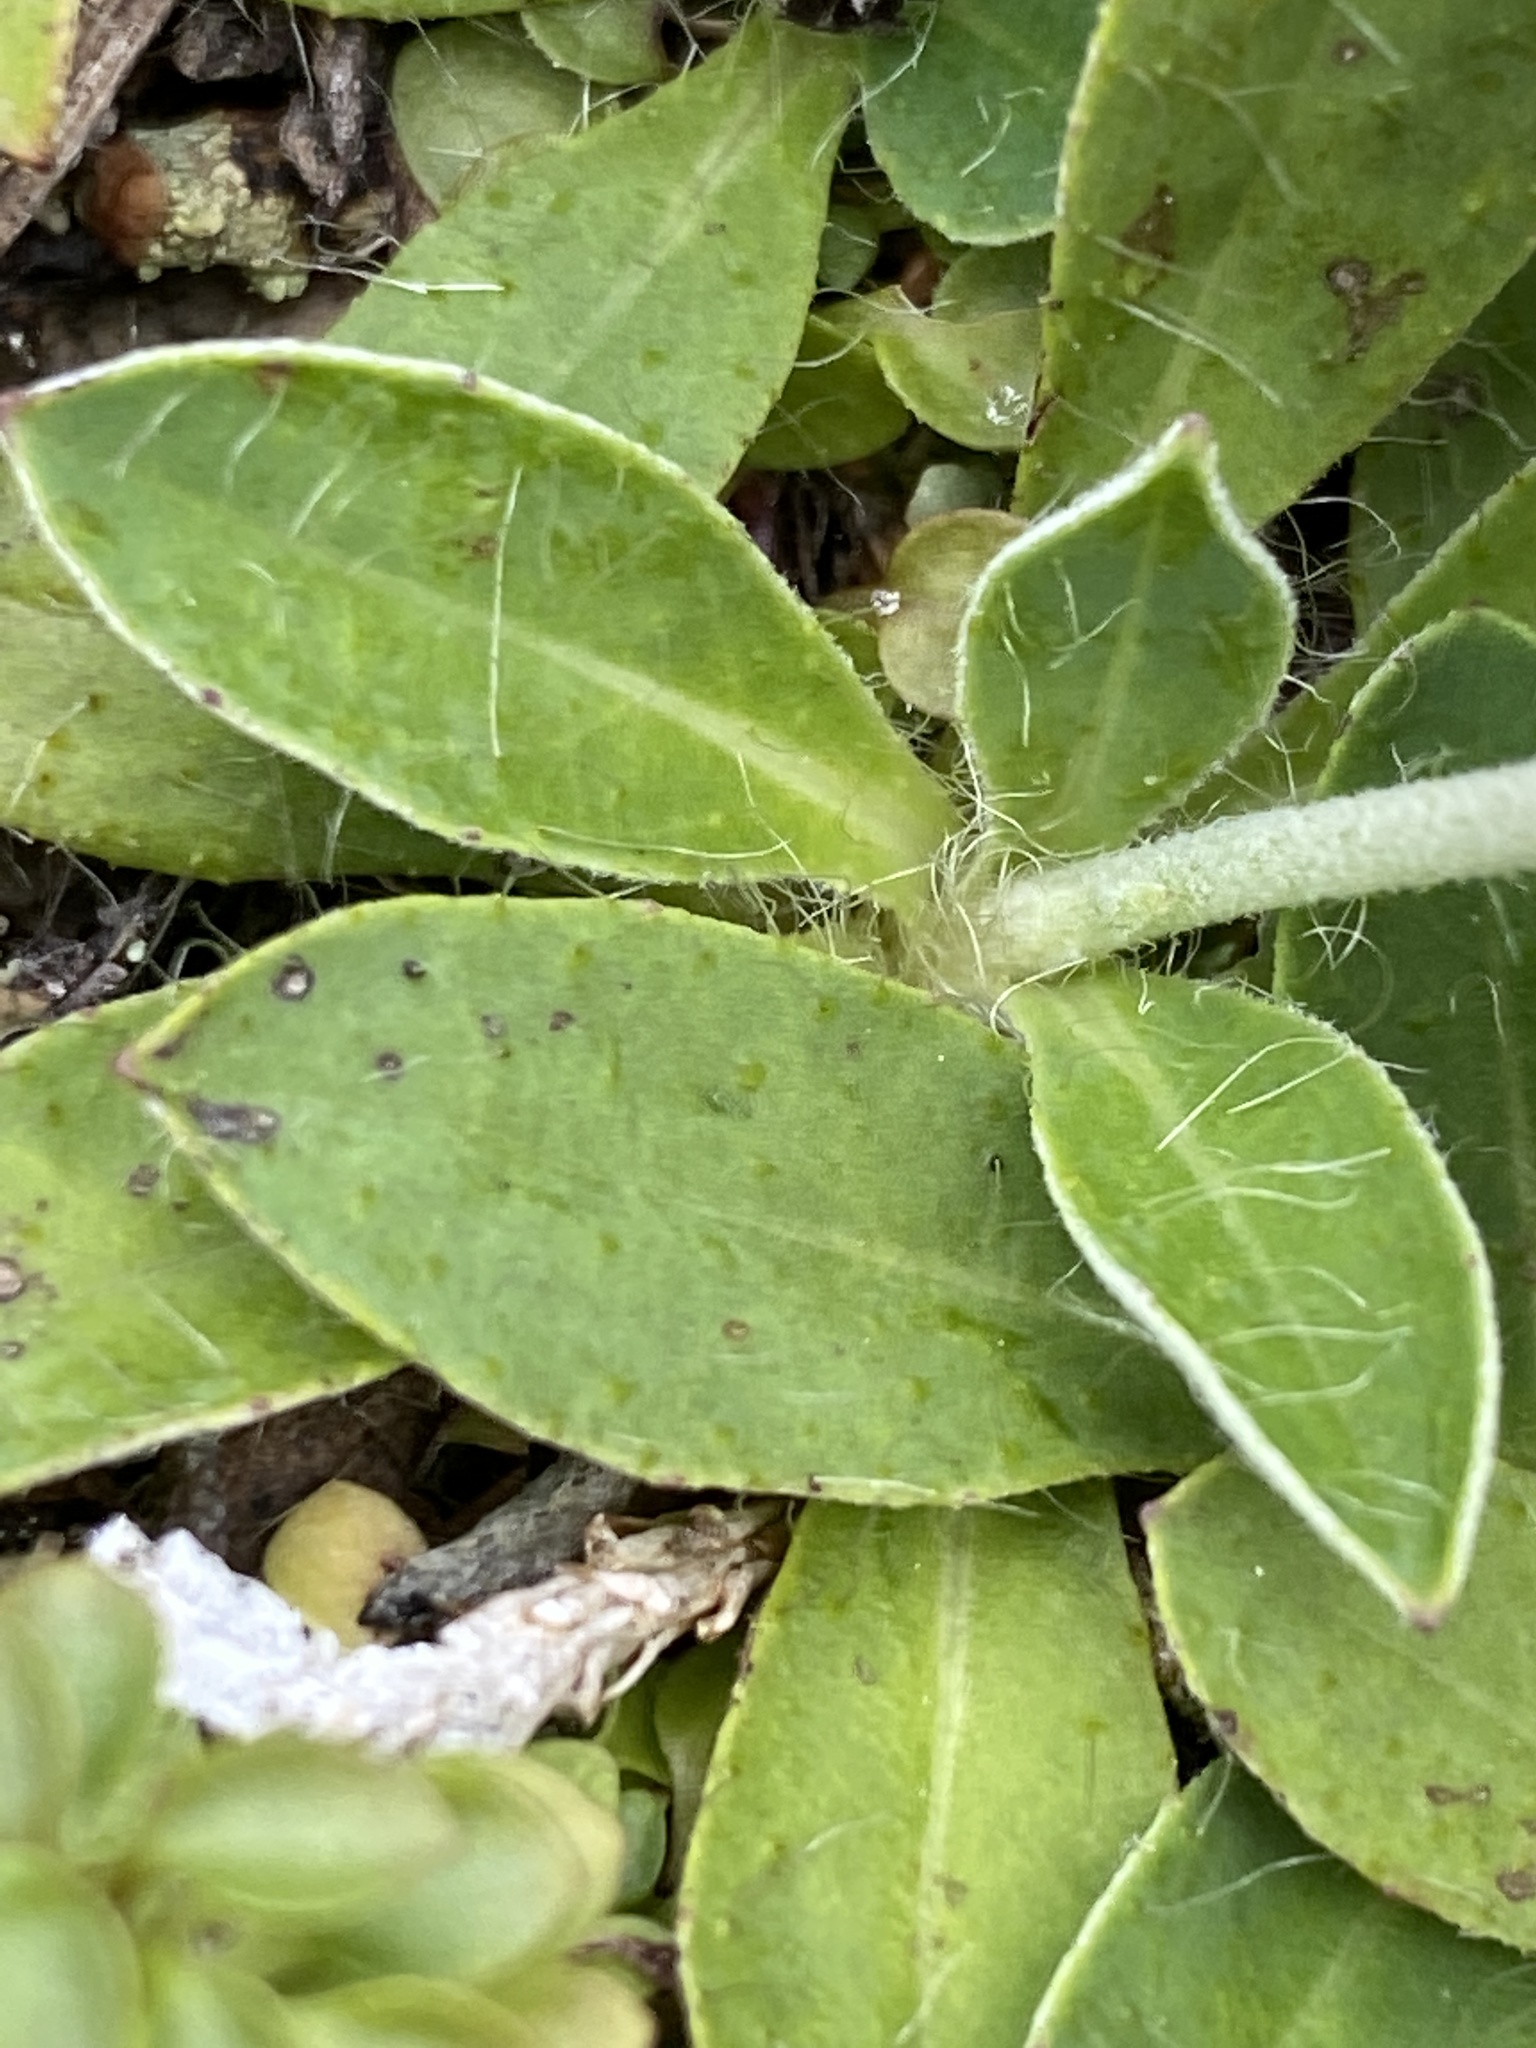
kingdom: Plantae
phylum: Tracheophyta
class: Magnoliopsida
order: Asterales
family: Asteraceae
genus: Pilosella
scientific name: Pilosella officinarum
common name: Mouse-ear hawkweed
